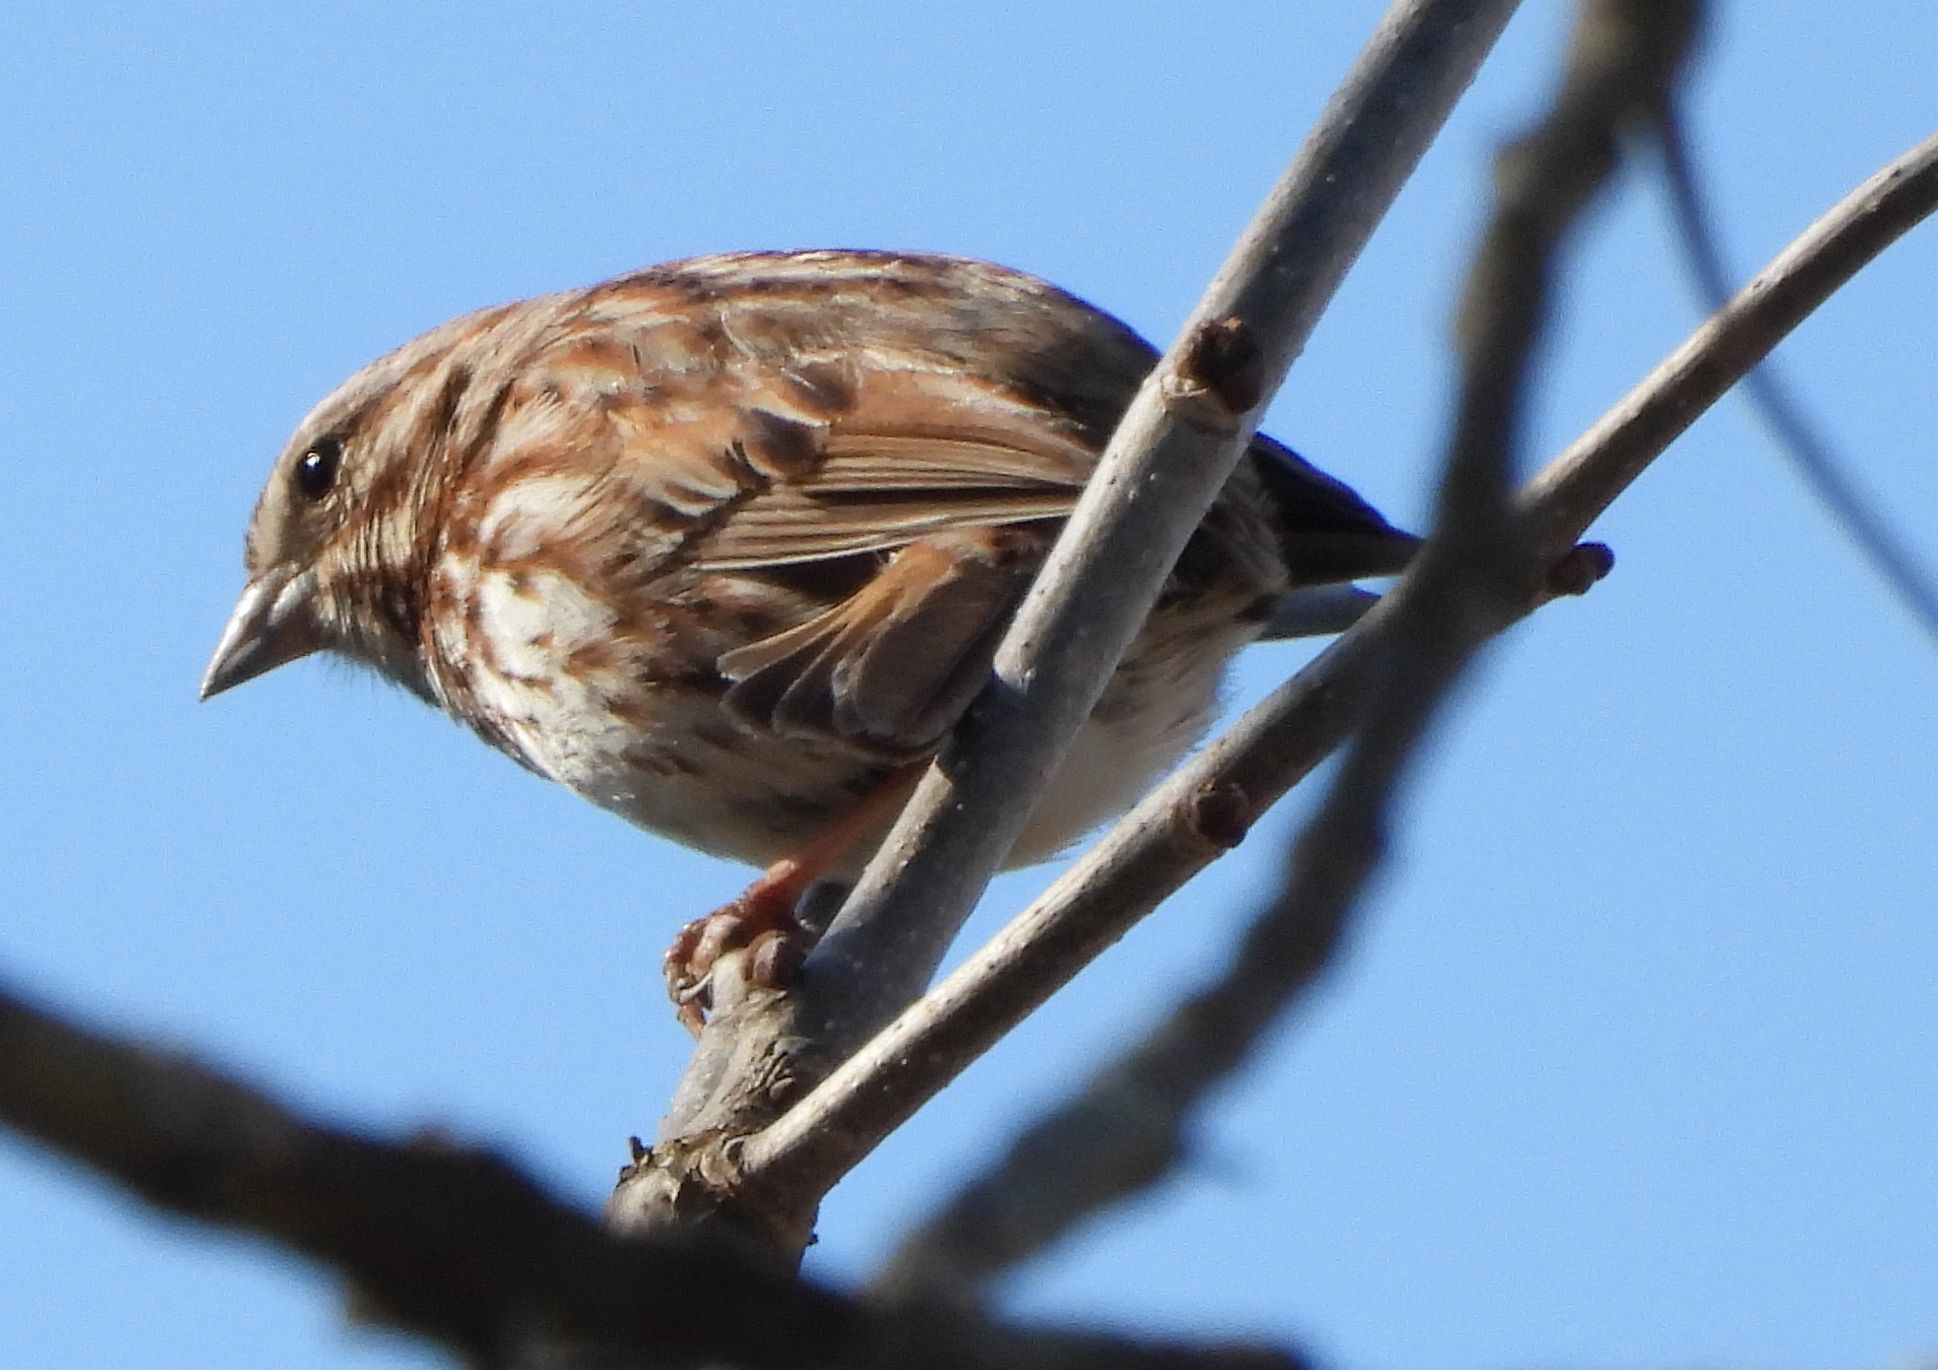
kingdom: Animalia
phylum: Chordata
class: Aves
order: Passeriformes
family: Passerellidae
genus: Melospiza
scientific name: Melospiza melodia
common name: Song sparrow
